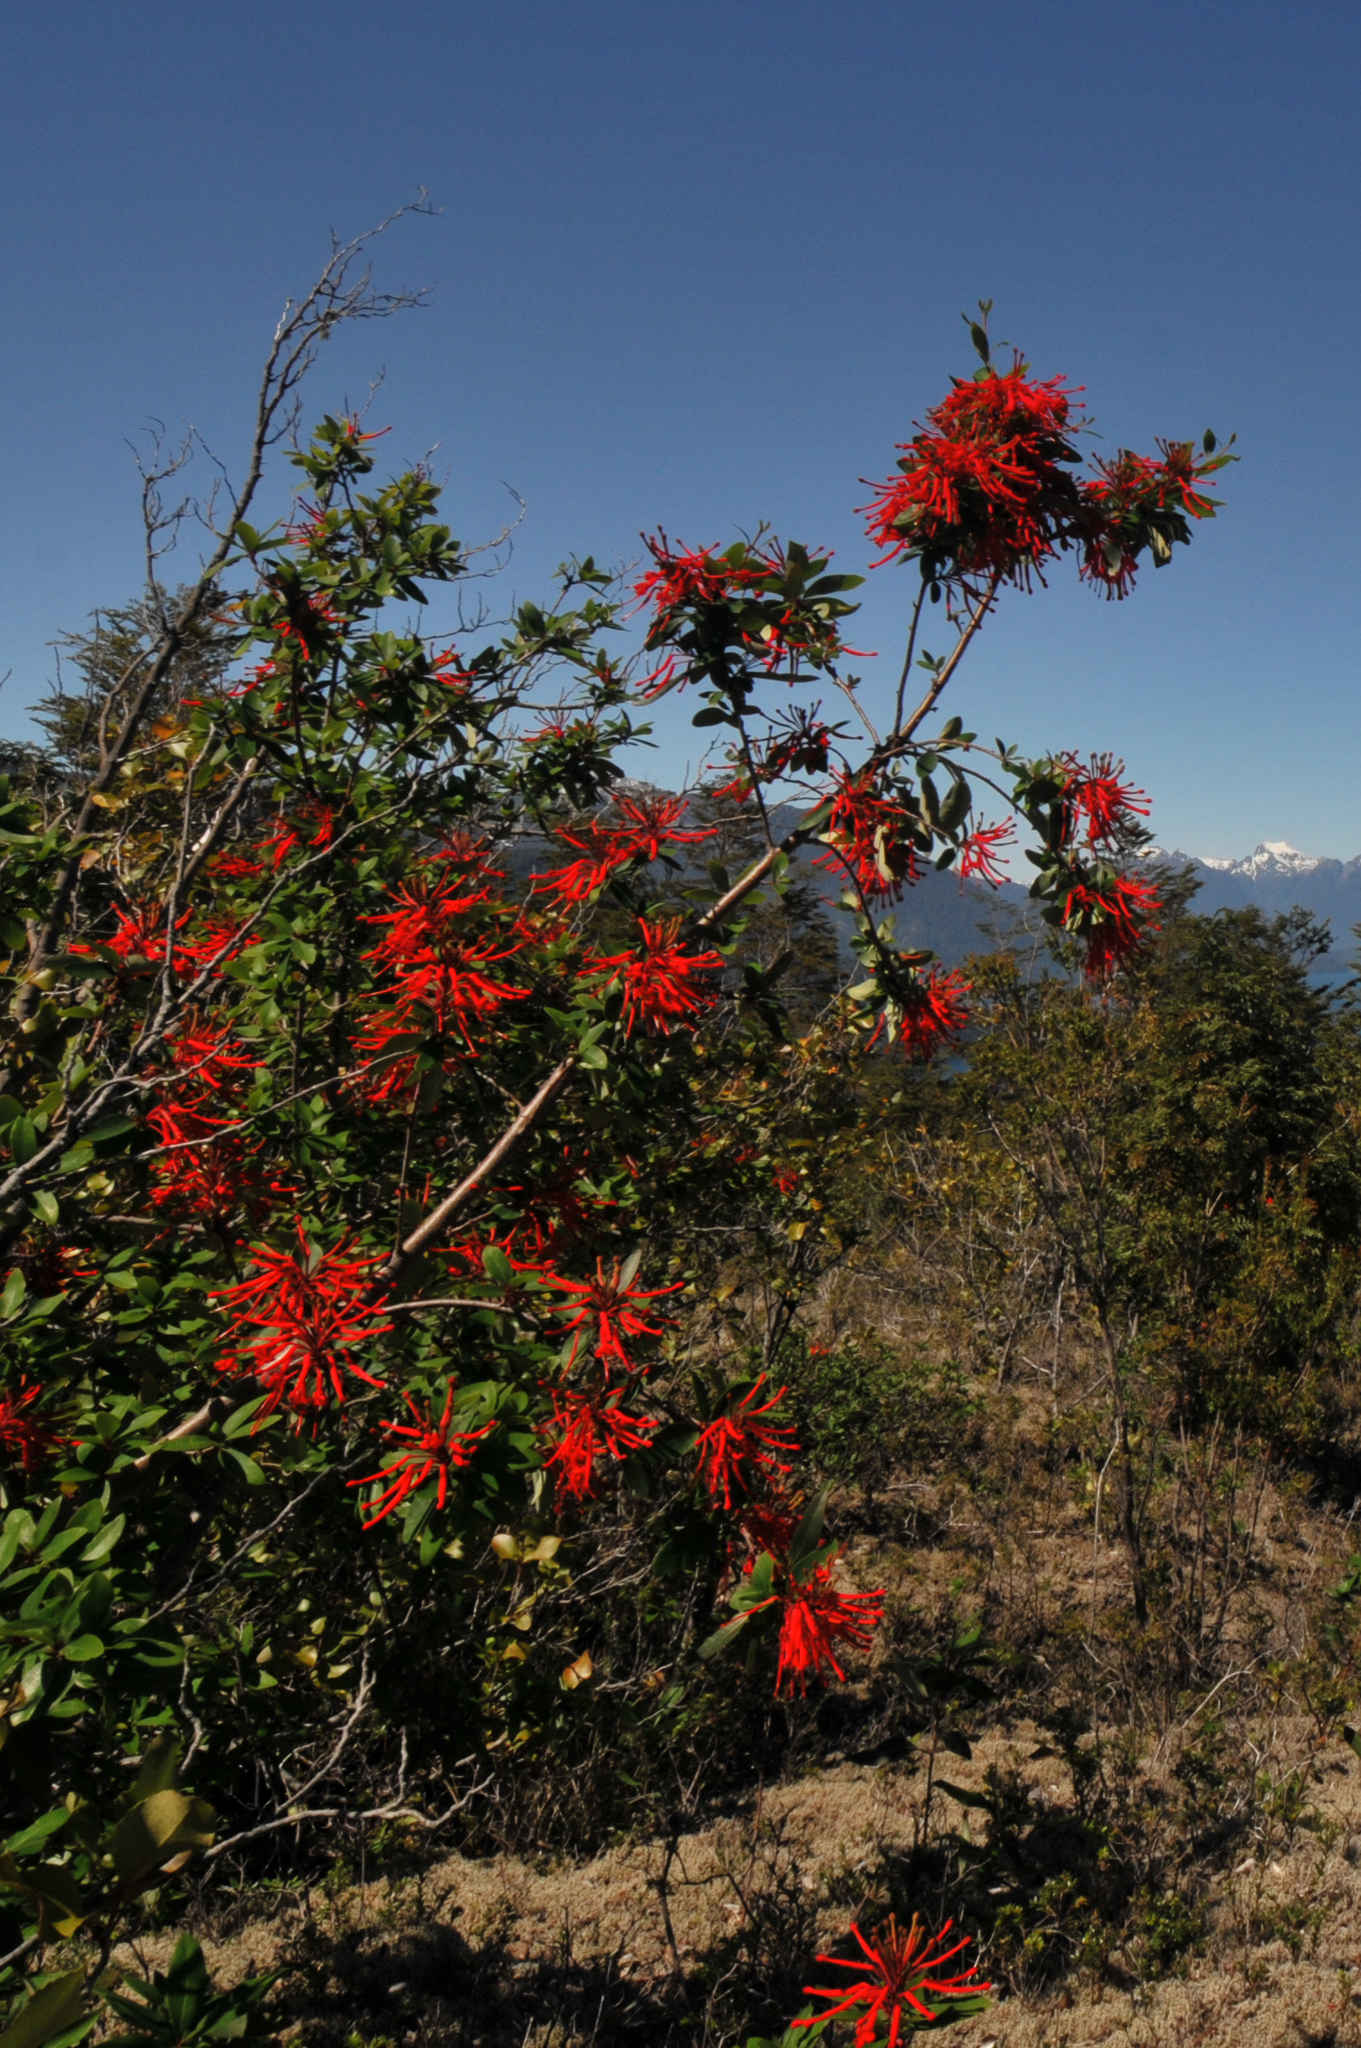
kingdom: Plantae
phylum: Tracheophyta
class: Magnoliopsida
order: Proteales
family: Proteaceae
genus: Embothrium
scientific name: Embothrium coccineum
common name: Chilean firebush
